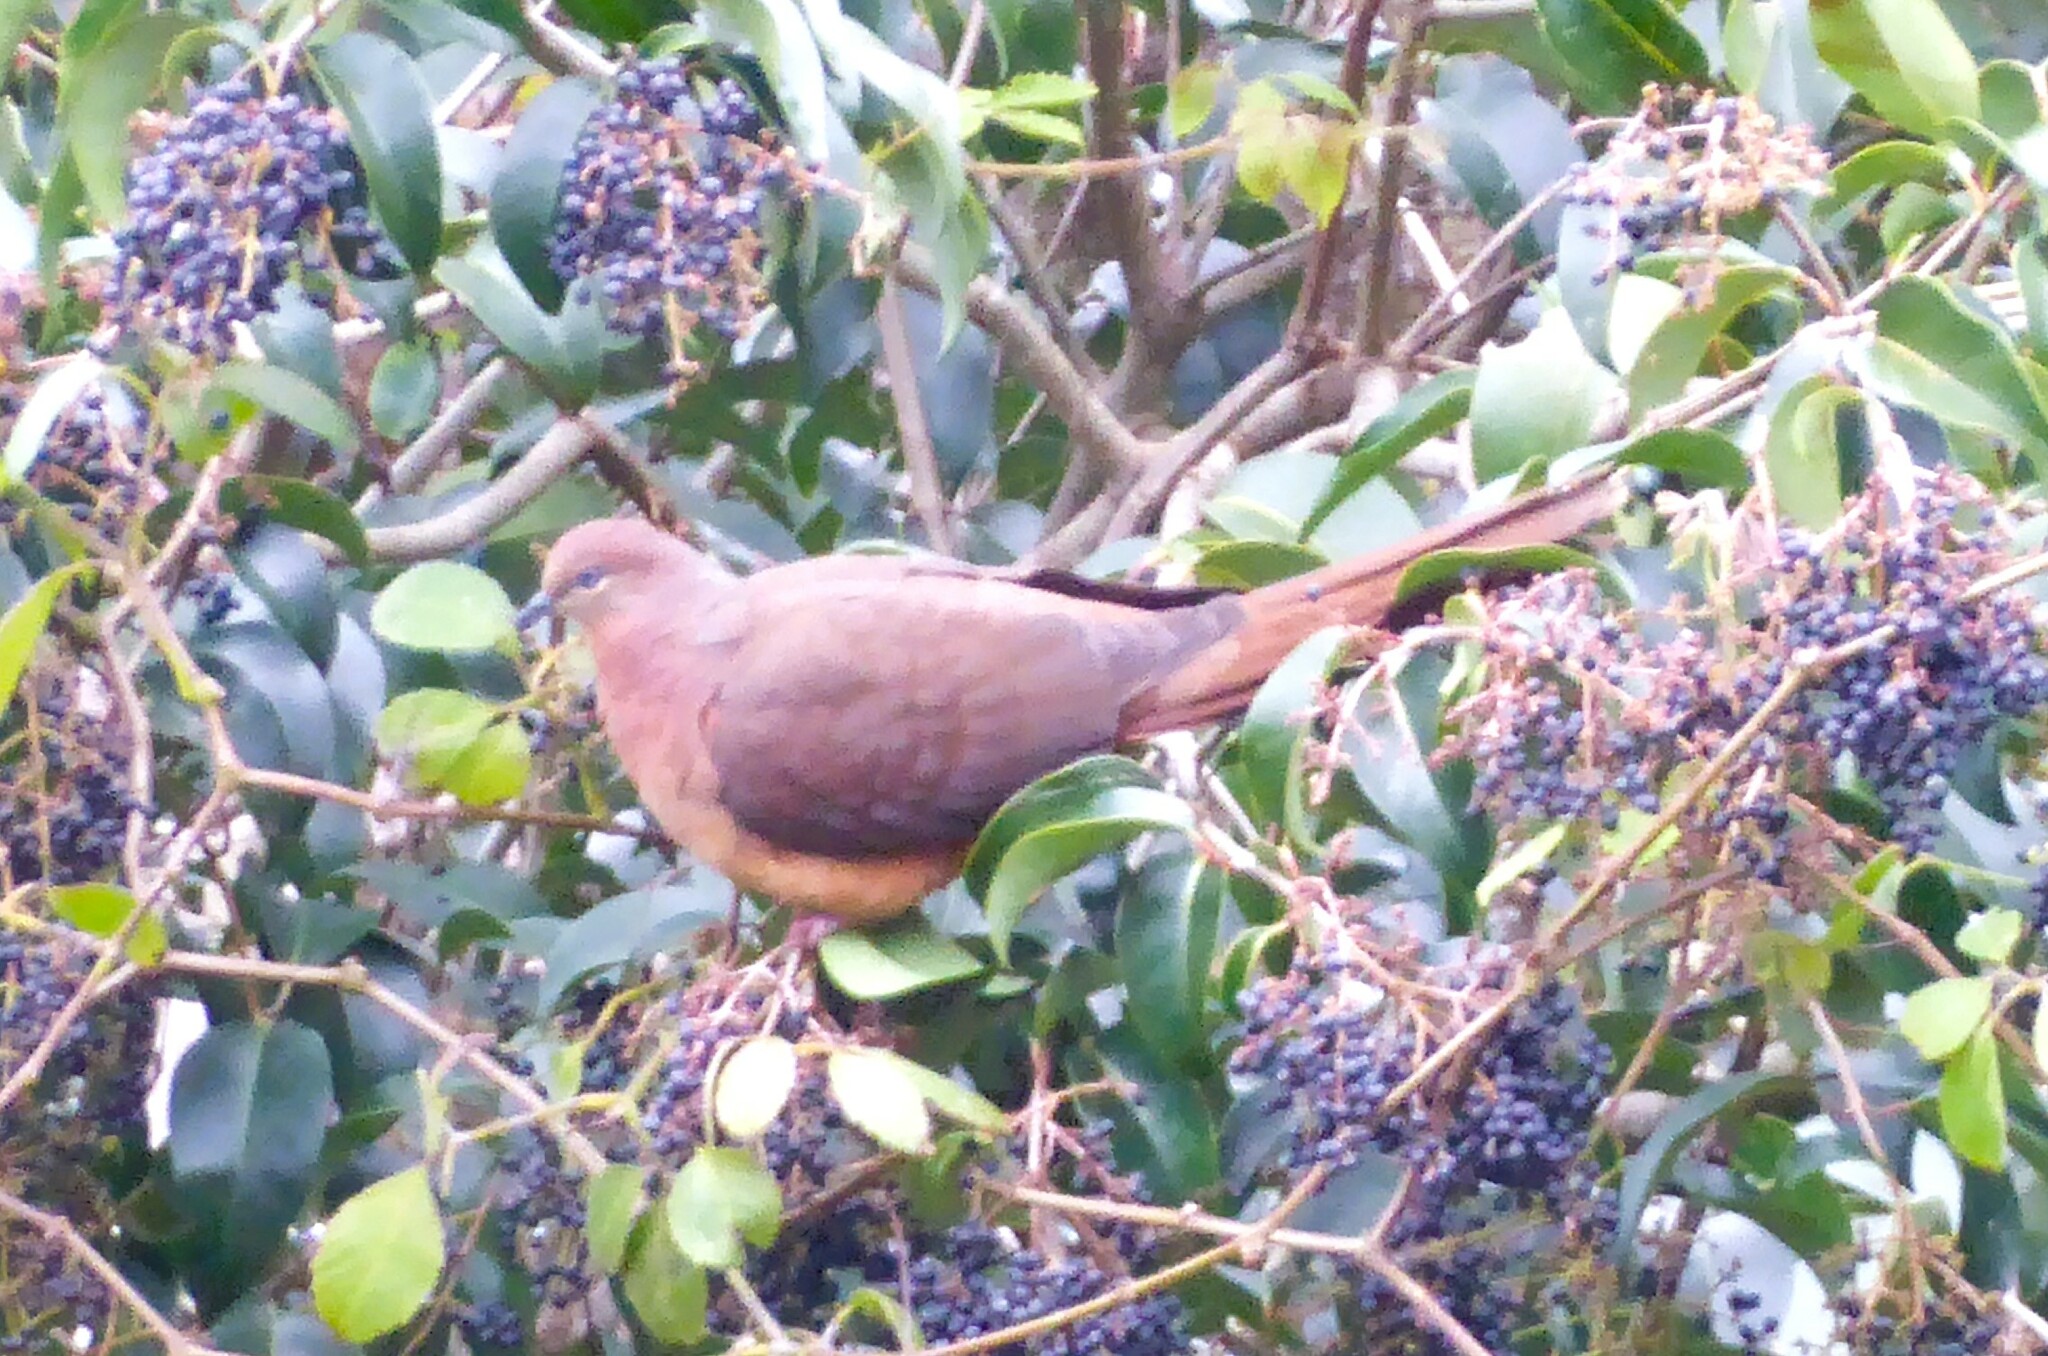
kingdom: Animalia
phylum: Chordata
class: Aves
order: Columbiformes
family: Columbidae
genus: Macropygia
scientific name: Macropygia phasianella
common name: Brown cuckoo-dove
